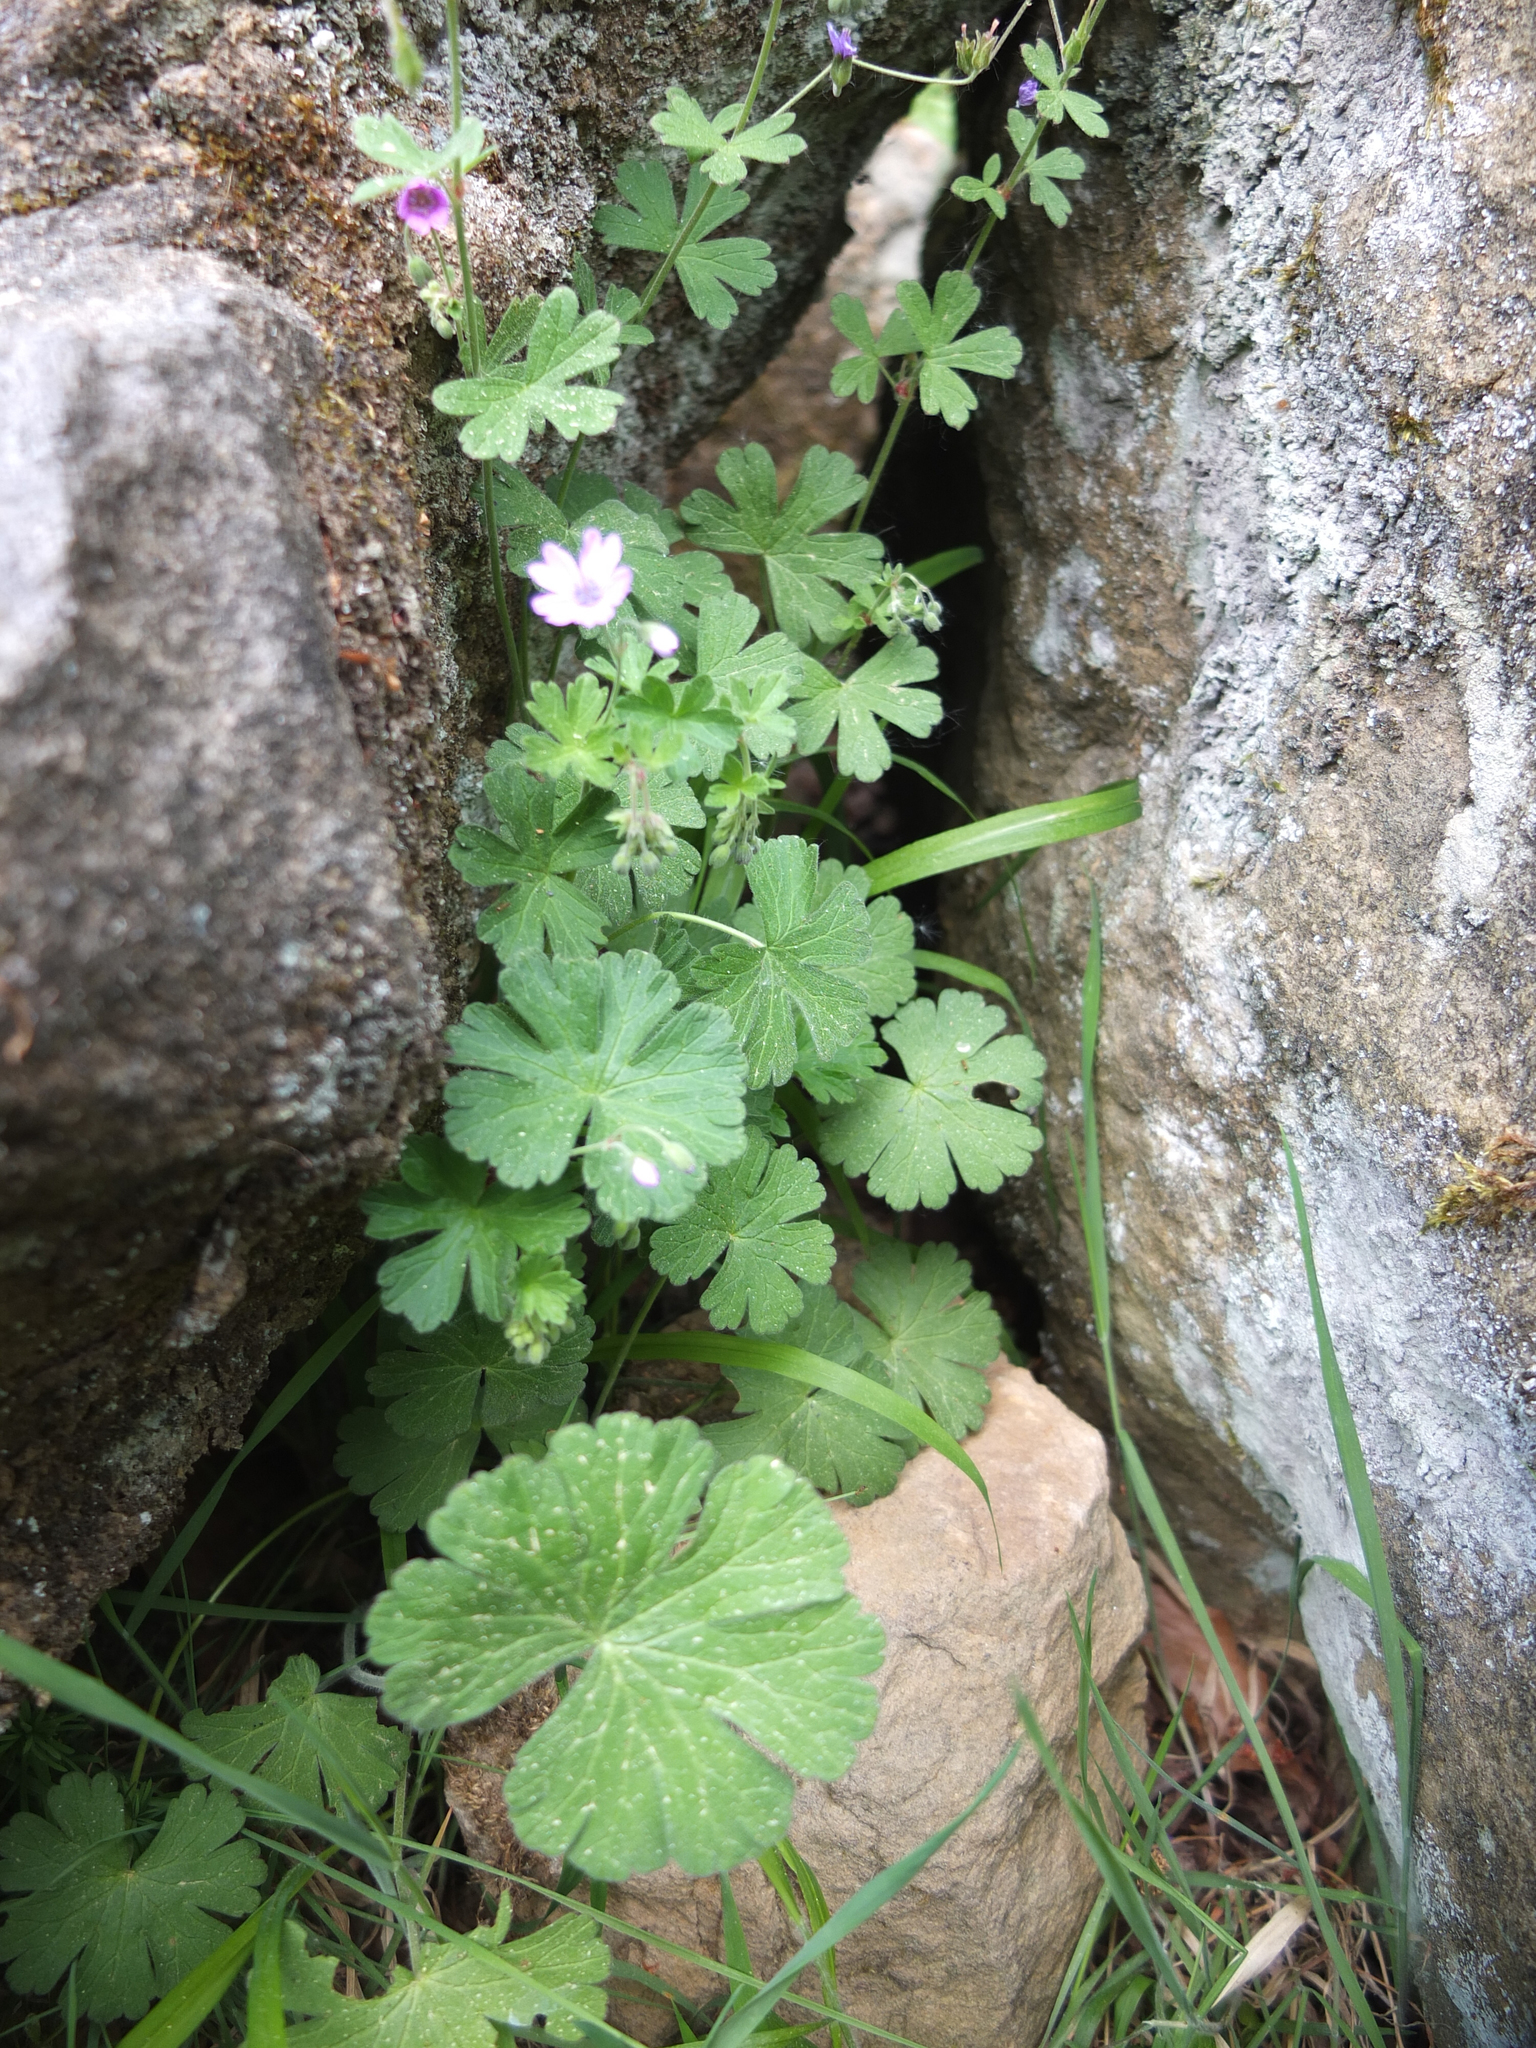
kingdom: Plantae
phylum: Tracheophyta
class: Magnoliopsida
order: Geraniales
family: Geraniaceae
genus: Geranium
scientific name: Geranium molle
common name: Dove's-foot crane's-bill
